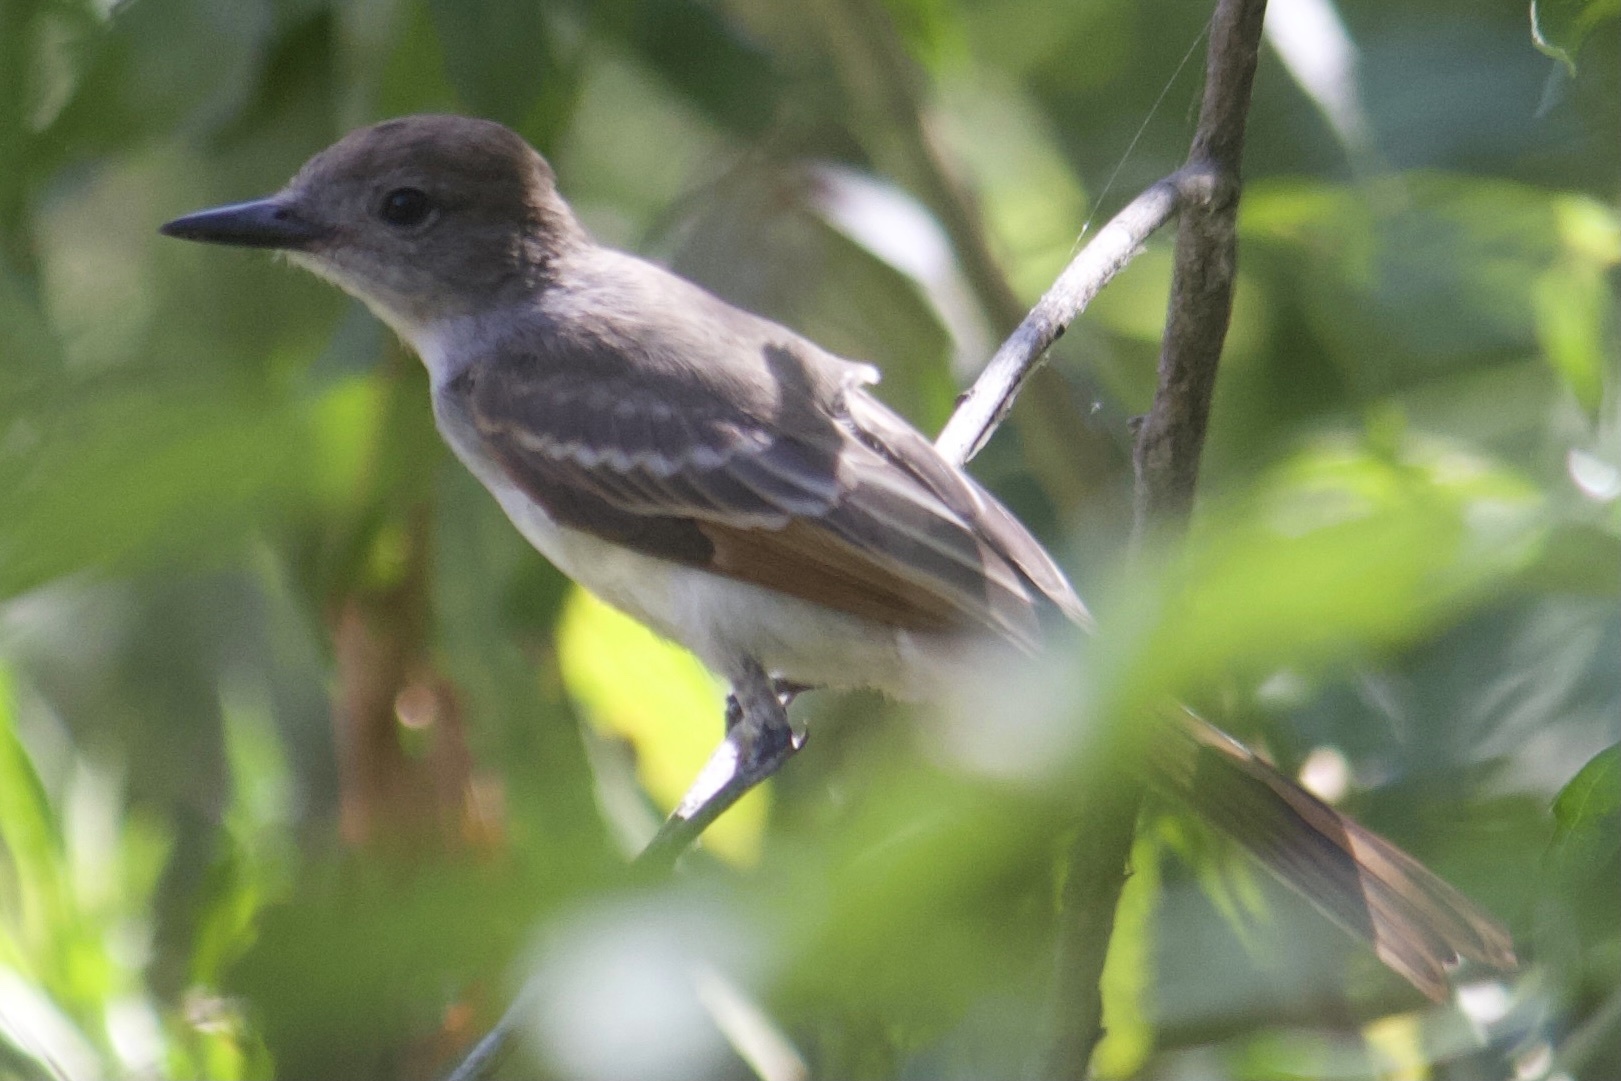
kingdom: Animalia
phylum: Chordata
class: Aves
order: Passeriformes
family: Tyrannidae
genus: Myiarchus
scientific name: Myiarchus cinerascens
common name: Ash-throated flycatcher
